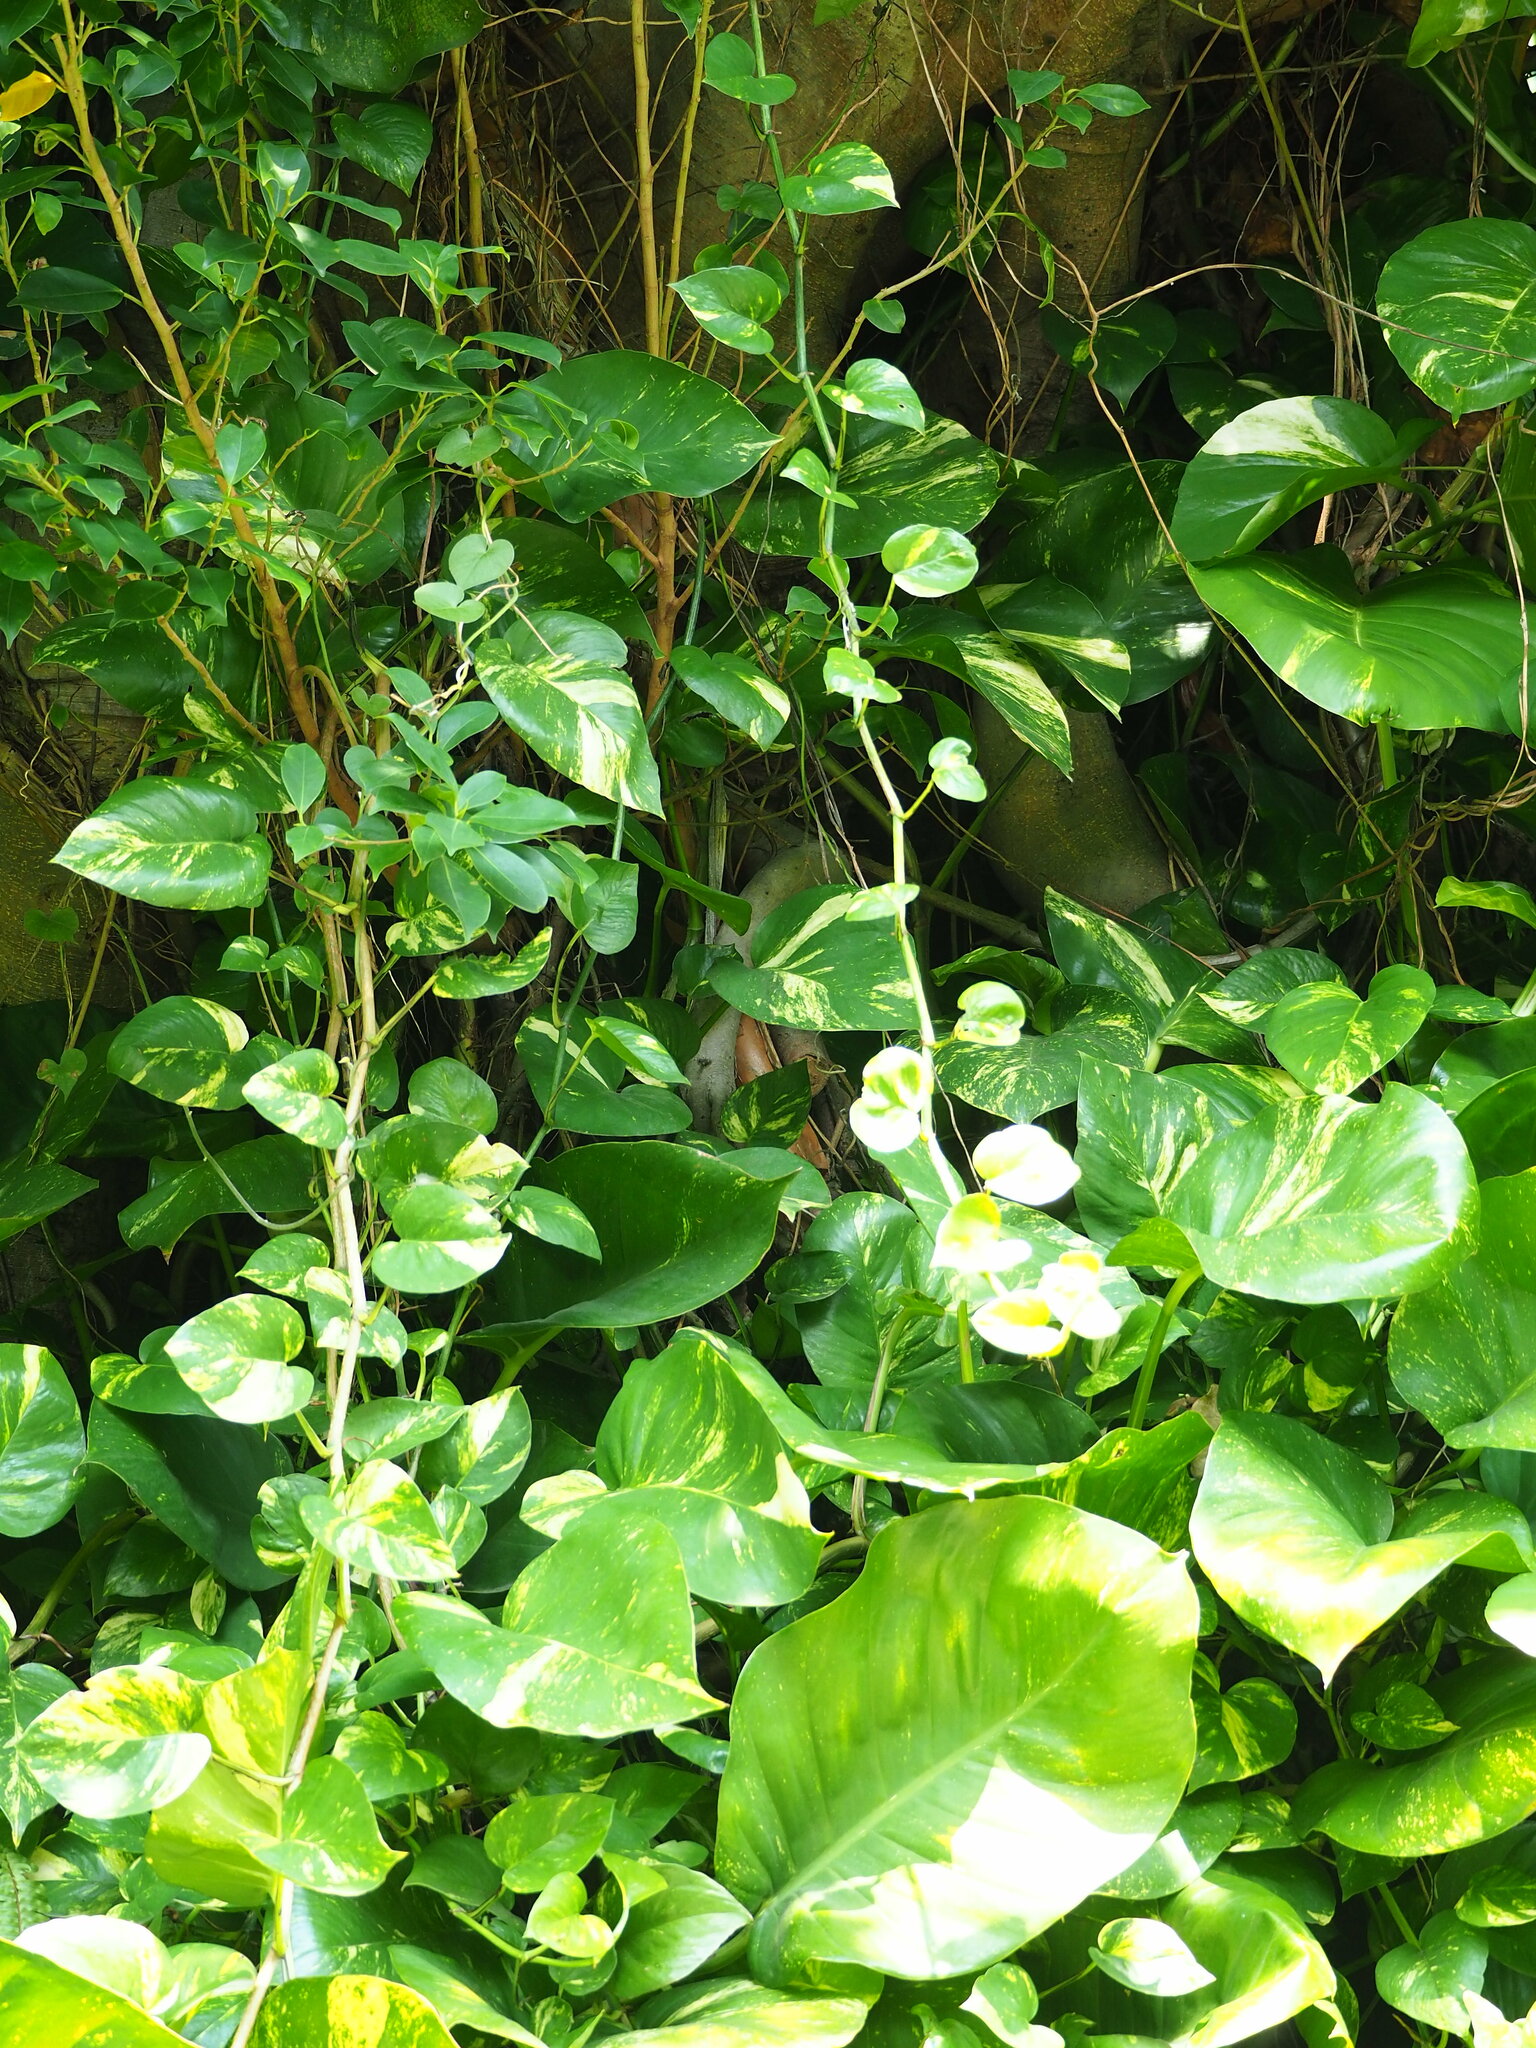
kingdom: Plantae
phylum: Tracheophyta
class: Liliopsida
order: Alismatales
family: Araceae
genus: Epipremnum
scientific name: Epipremnum aureum
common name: Golden hunter's-robe
